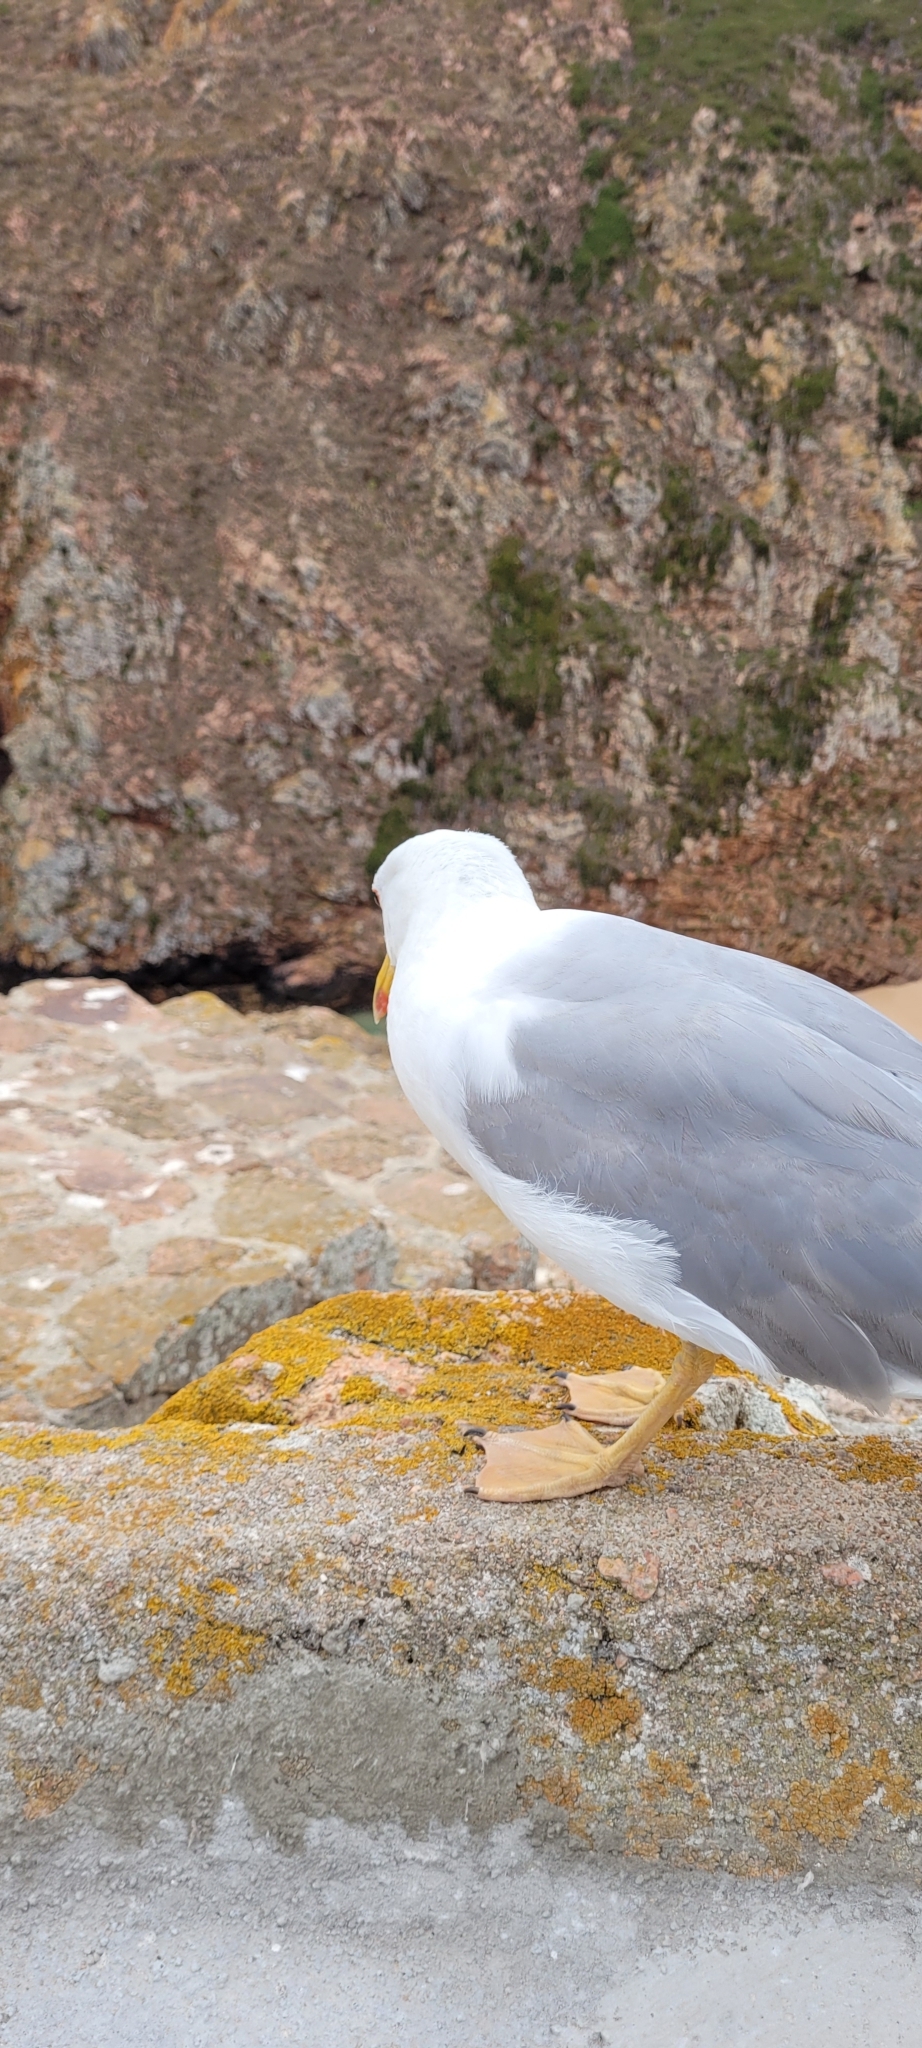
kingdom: Animalia
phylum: Chordata
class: Aves
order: Charadriiformes
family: Laridae
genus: Larus
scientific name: Larus michahellis
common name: Yellow-legged gull
